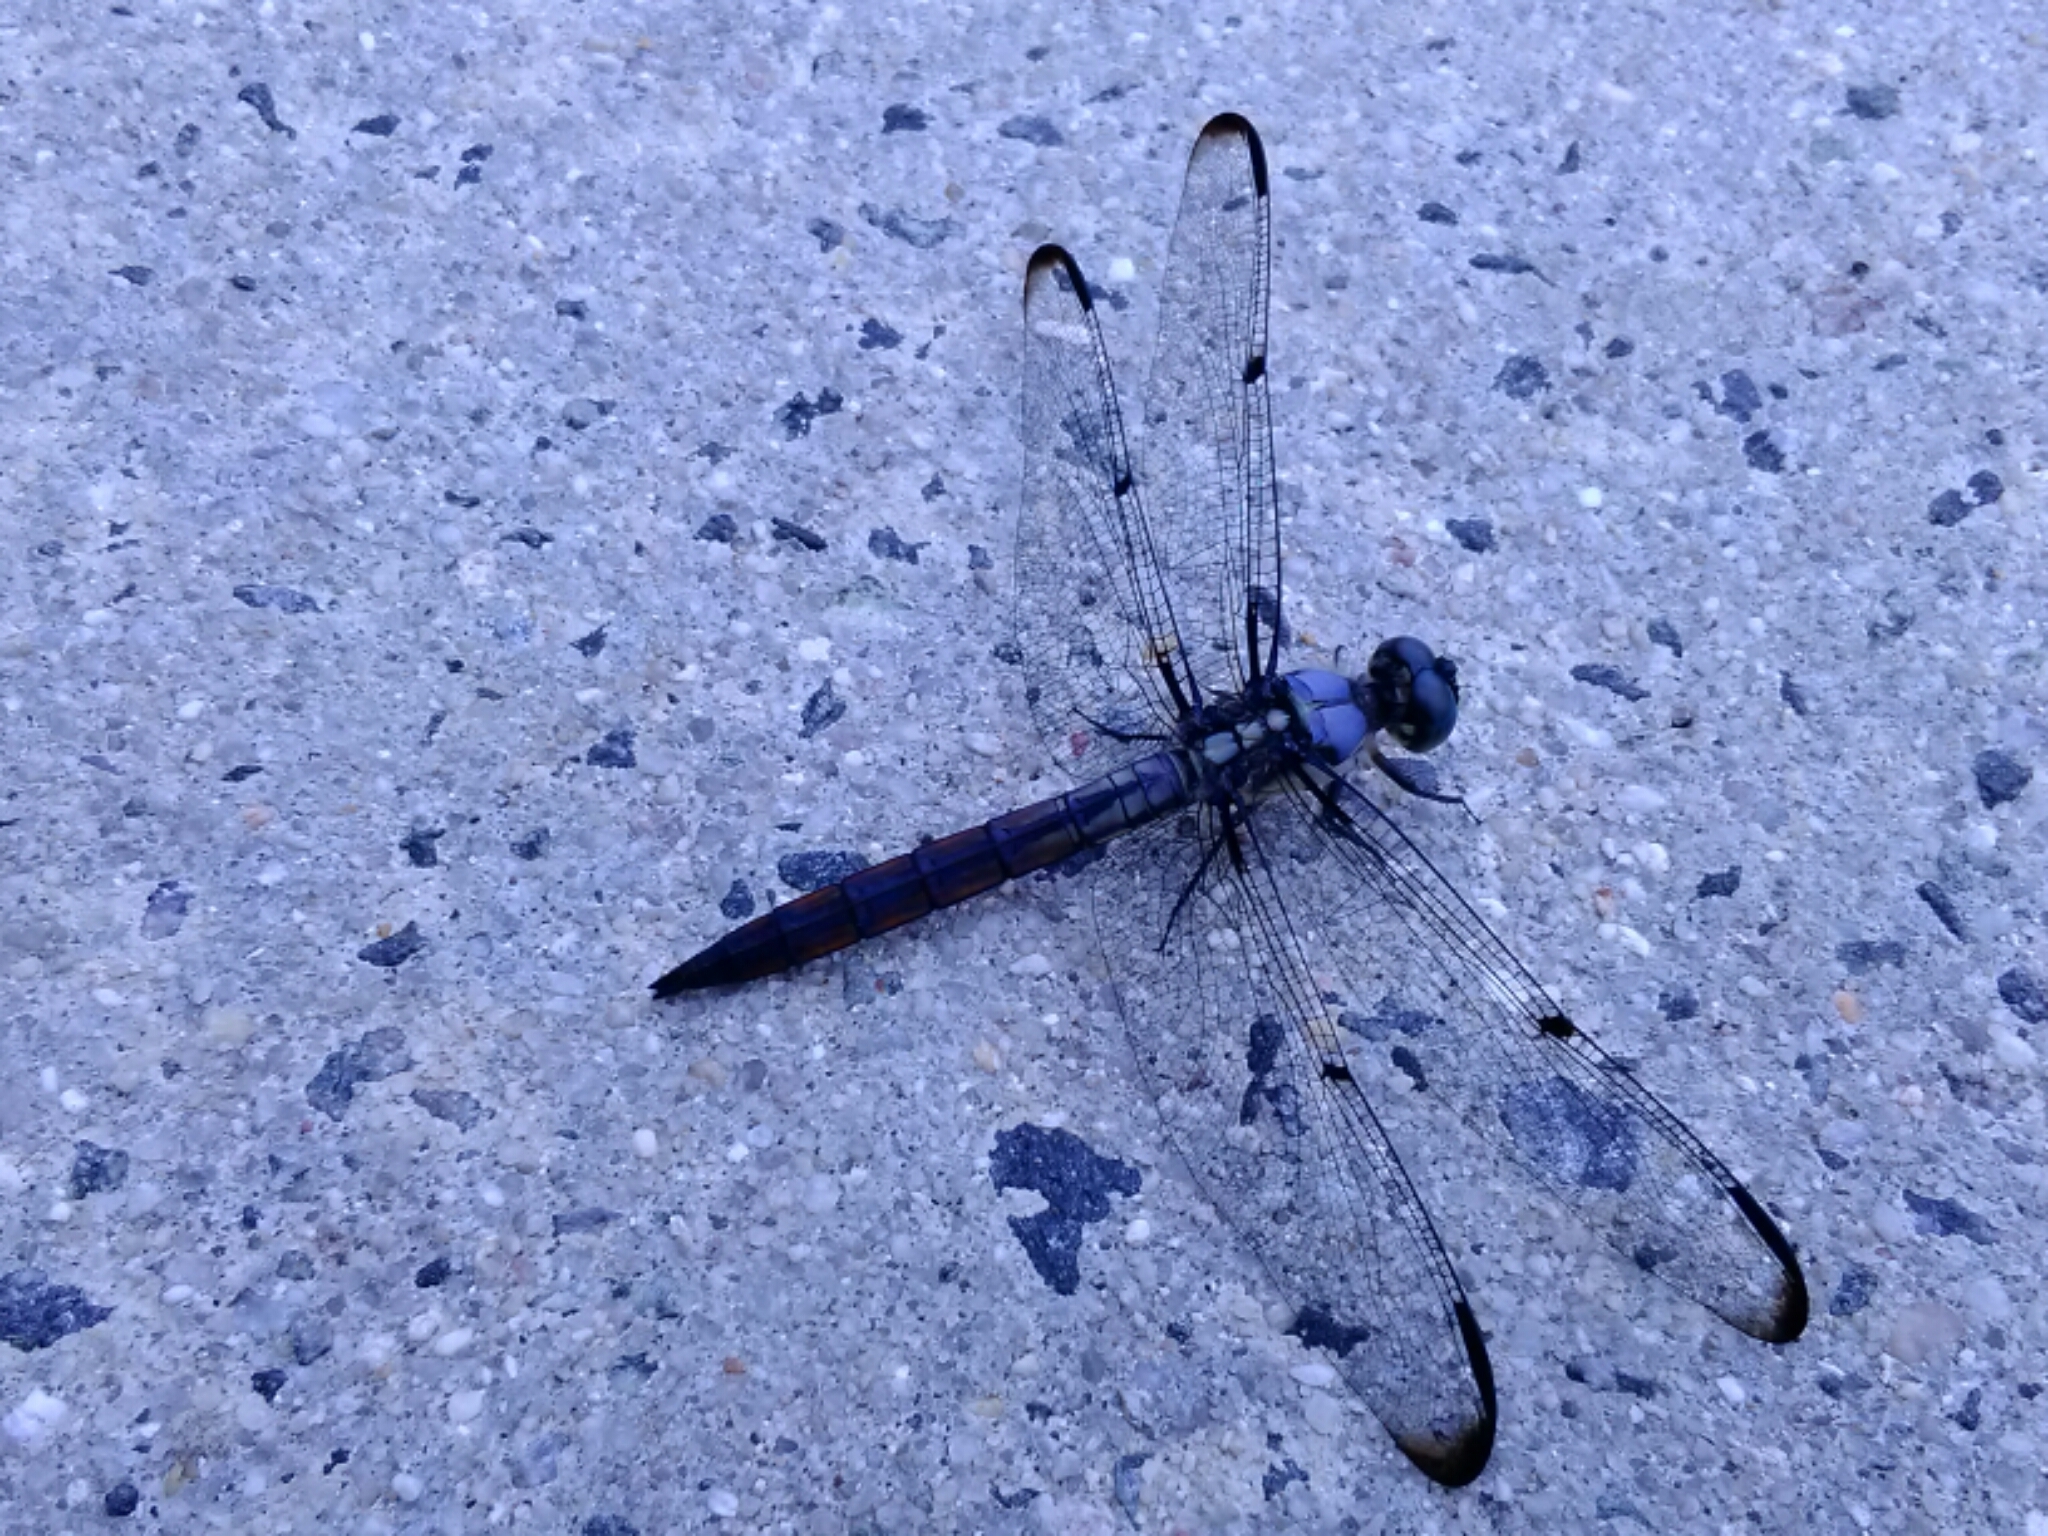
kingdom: Animalia
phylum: Arthropoda
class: Insecta
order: Odonata
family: Libellulidae
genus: Libellula
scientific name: Libellula vibrans
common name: Great blue skimmer
